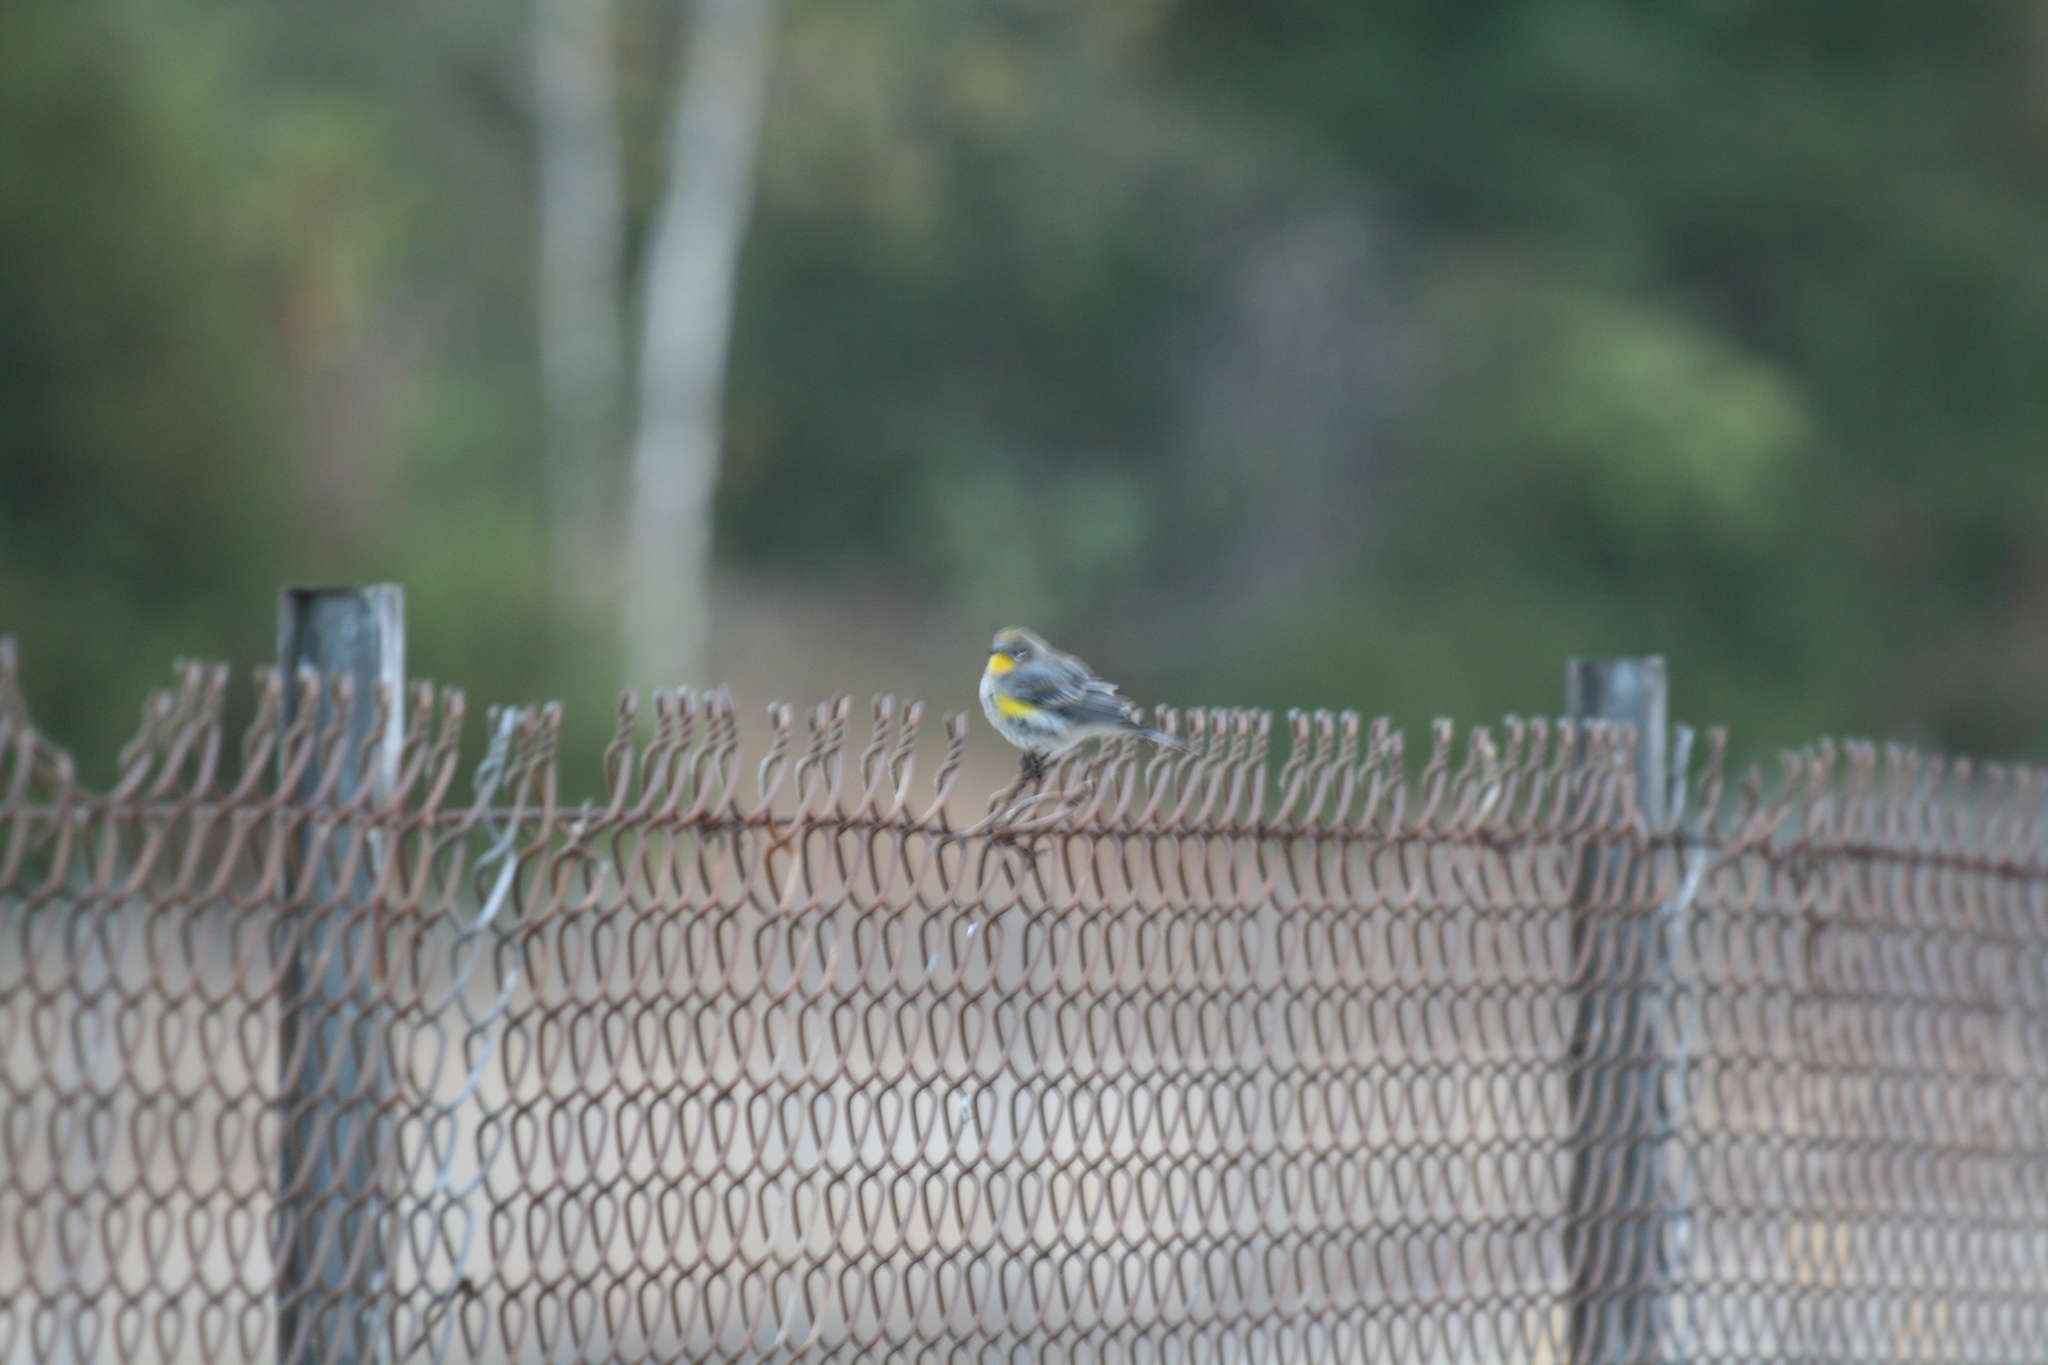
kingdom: Animalia
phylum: Chordata
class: Aves
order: Passeriformes
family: Parulidae
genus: Setophaga
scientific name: Setophaga coronata
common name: Myrtle warbler
